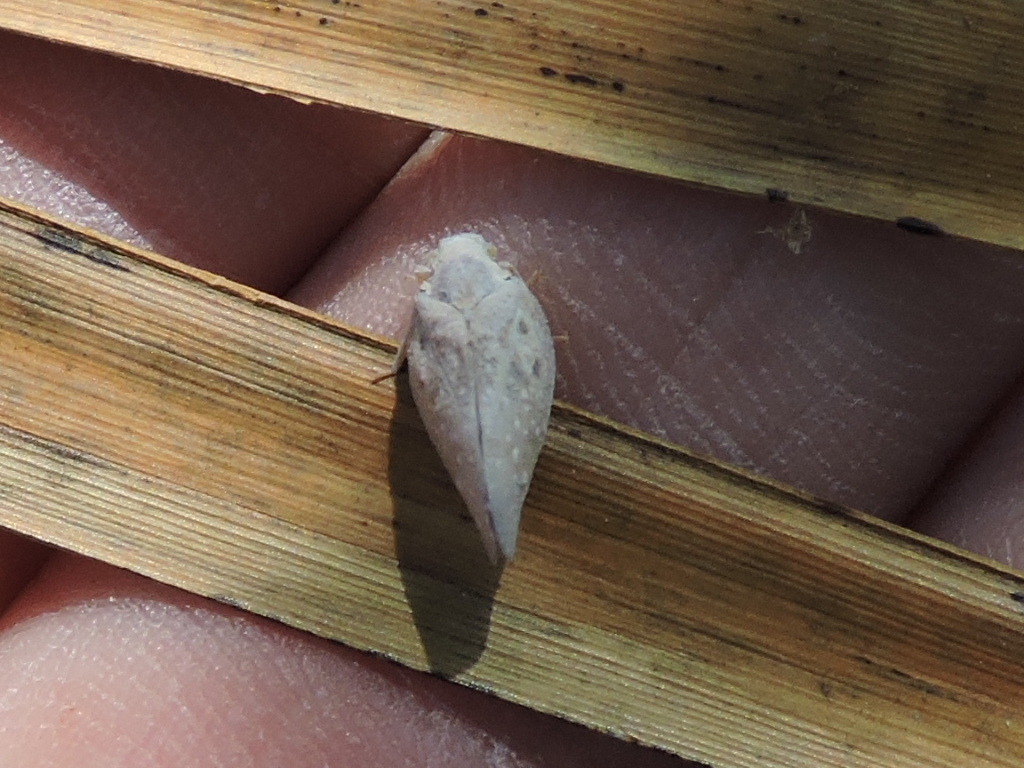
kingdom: Animalia
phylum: Arthropoda
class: Insecta
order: Hemiptera
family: Flatidae
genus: Metcalfa
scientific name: Metcalfa pruinosa
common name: Citrus flatid planthopper
